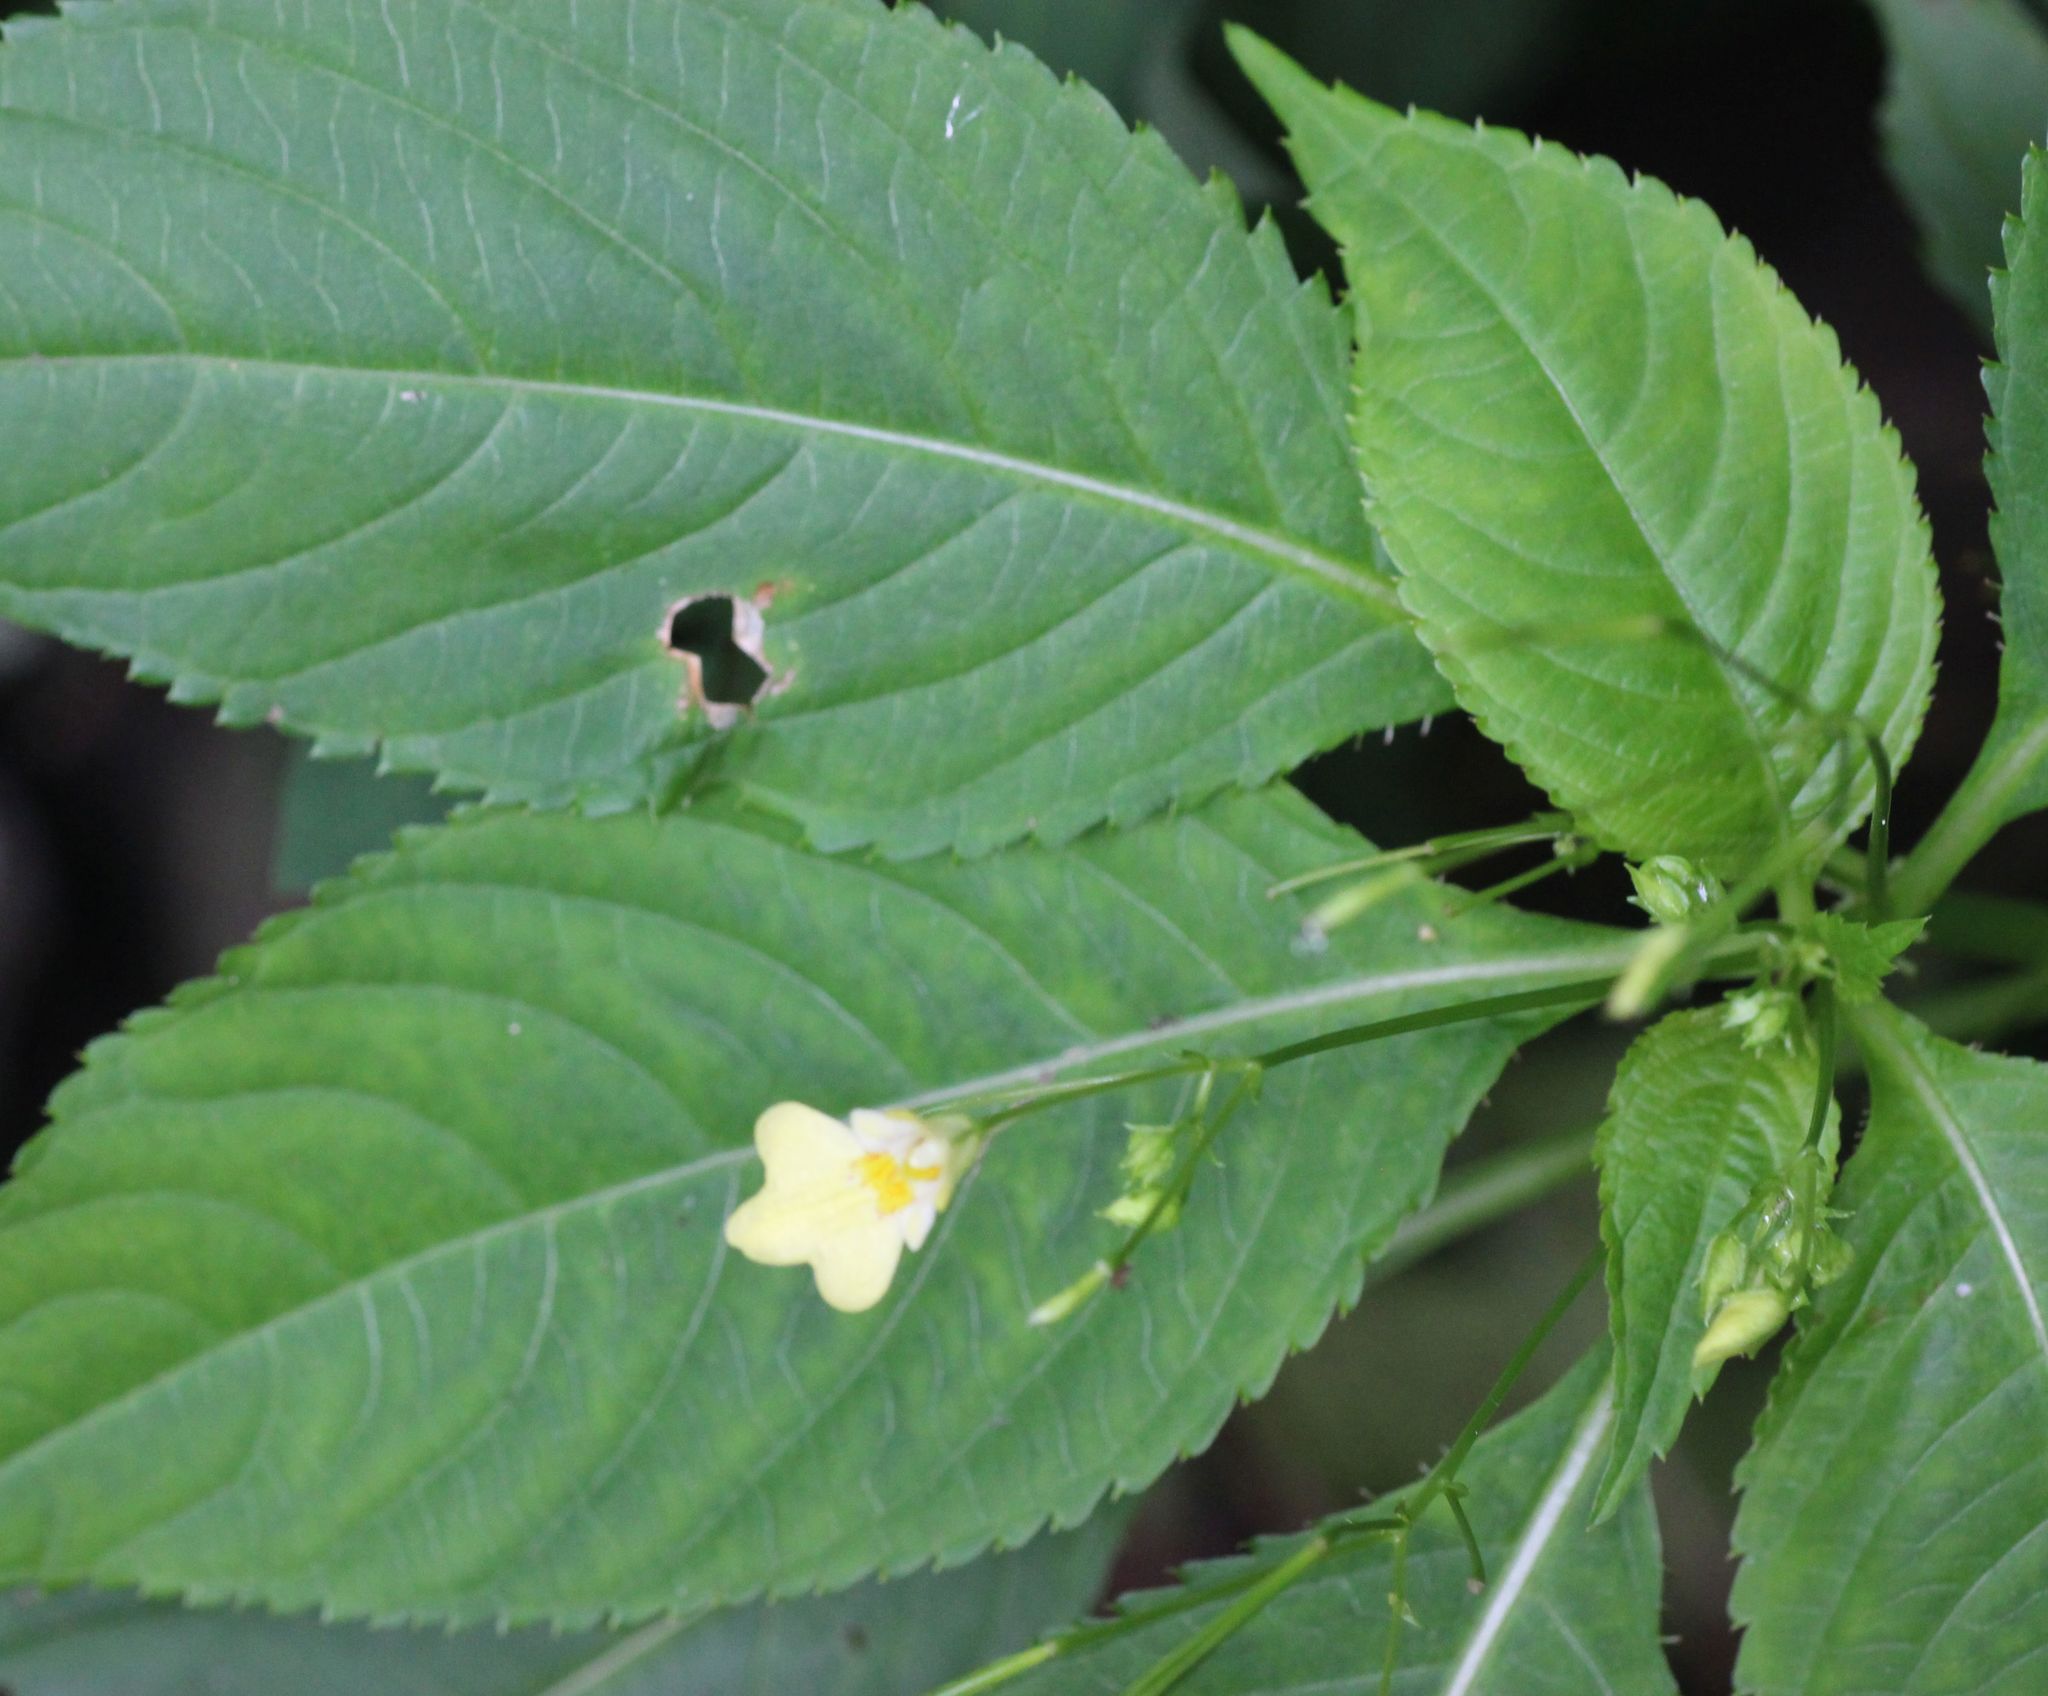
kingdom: Plantae
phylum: Tracheophyta
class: Magnoliopsida
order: Ericales
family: Balsaminaceae
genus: Impatiens
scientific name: Impatiens parviflora
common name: Small balsam
